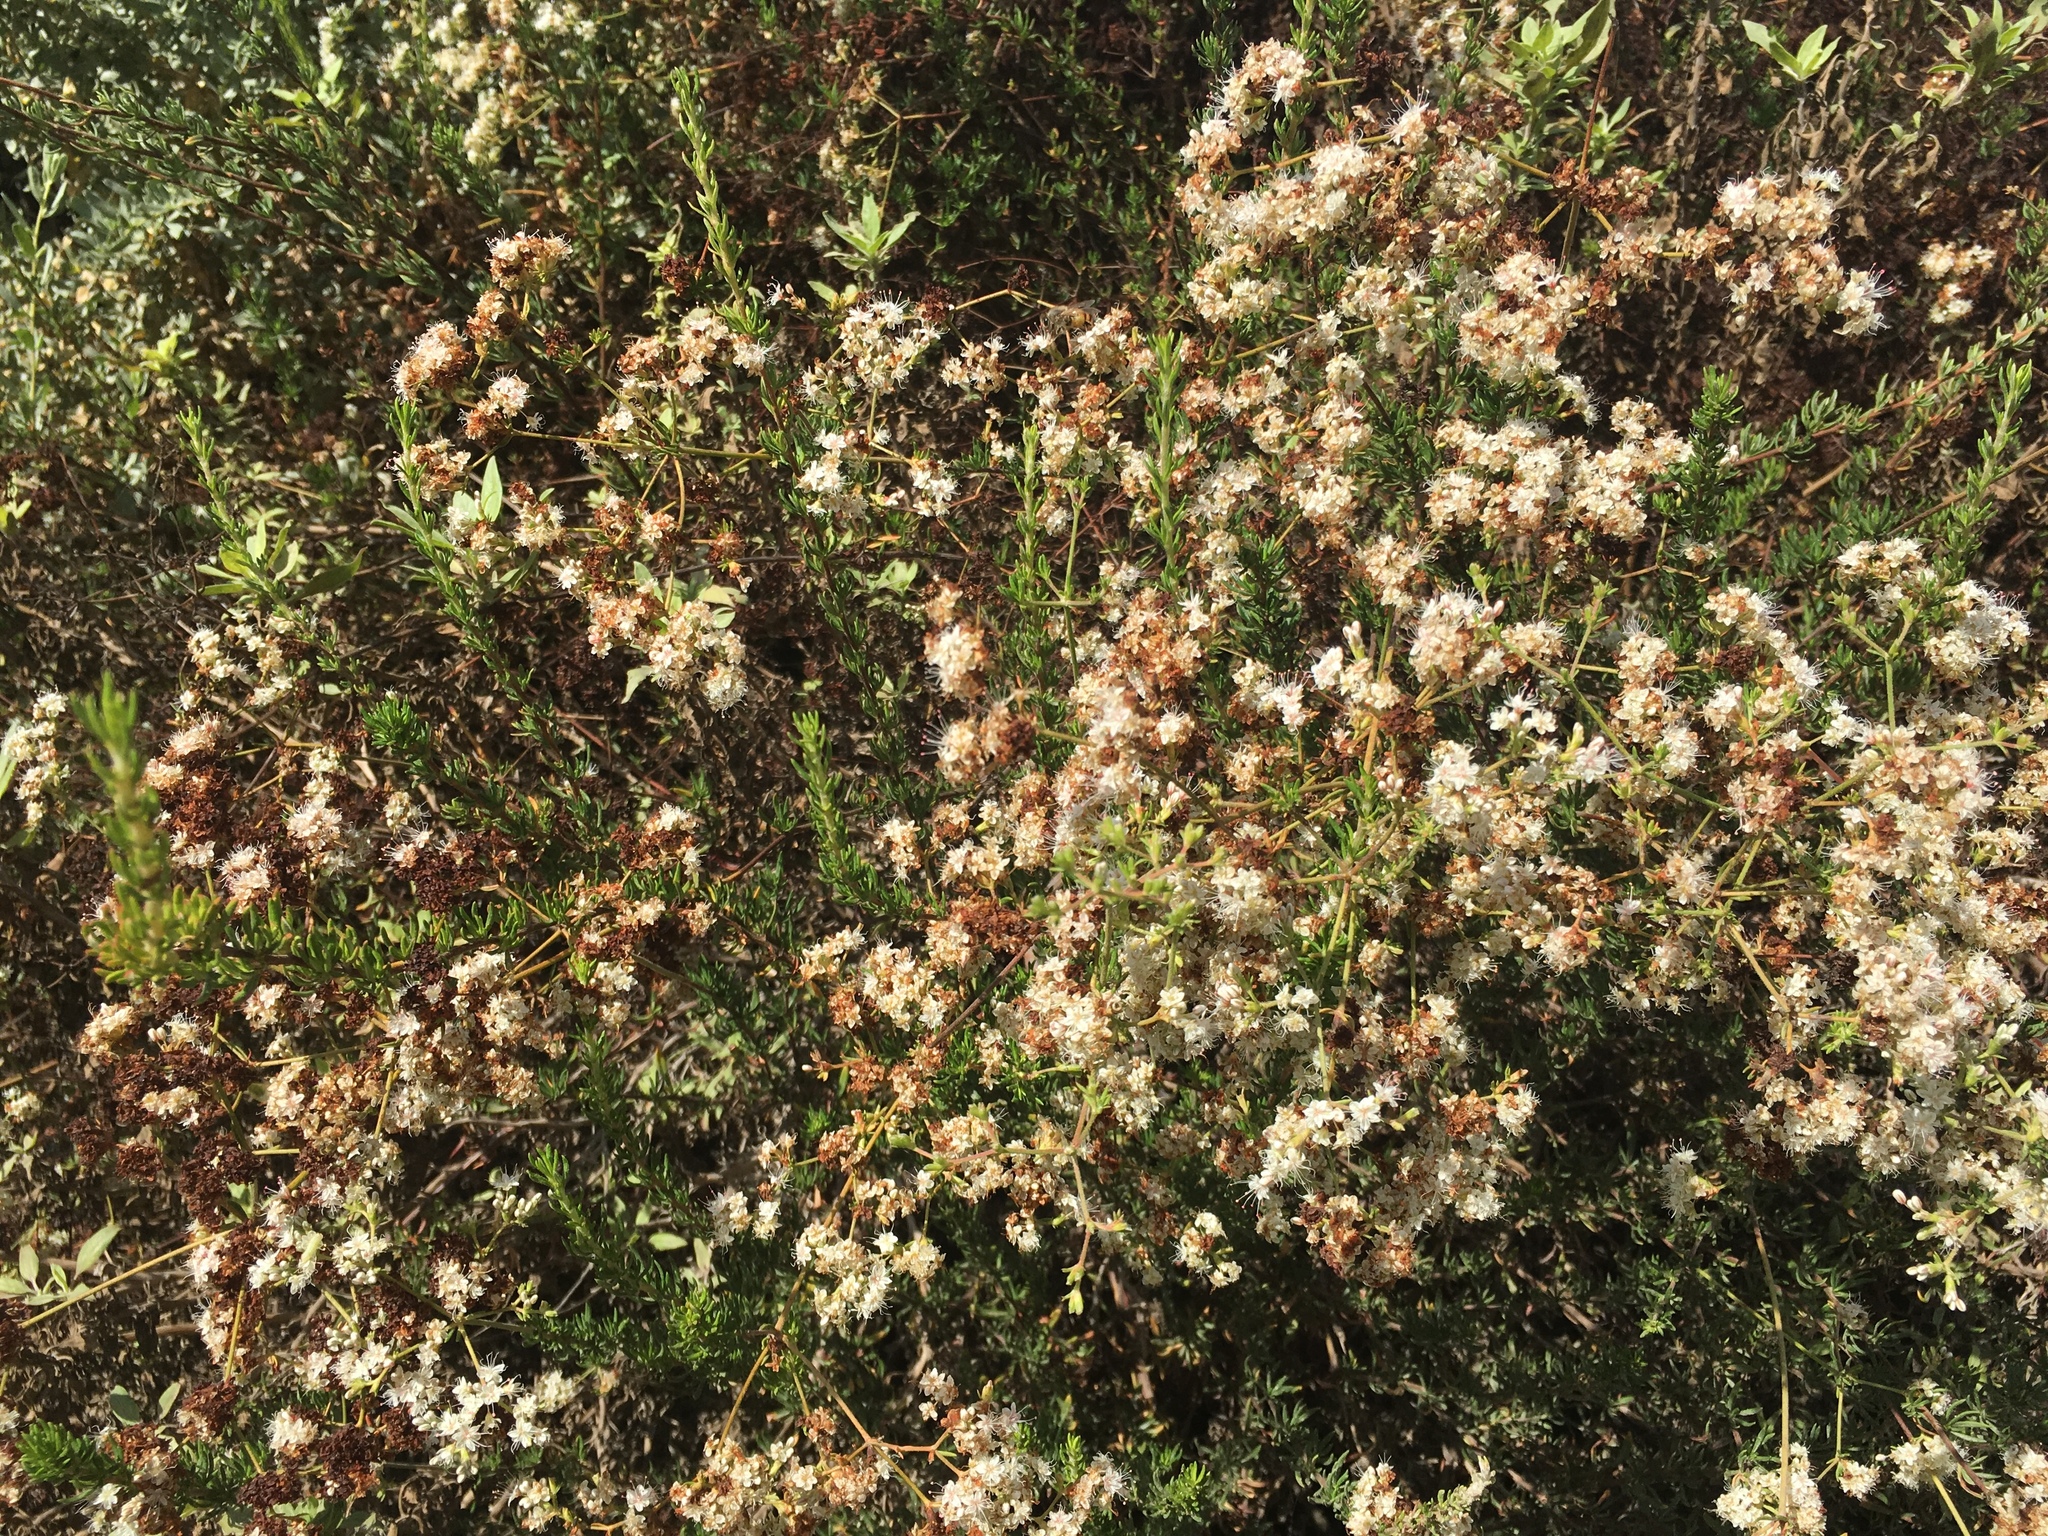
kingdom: Plantae
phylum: Tracheophyta
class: Magnoliopsida
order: Caryophyllales
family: Polygonaceae
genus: Eriogonum
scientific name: Eriogonum fasciculatum
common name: California wild buckwheat
